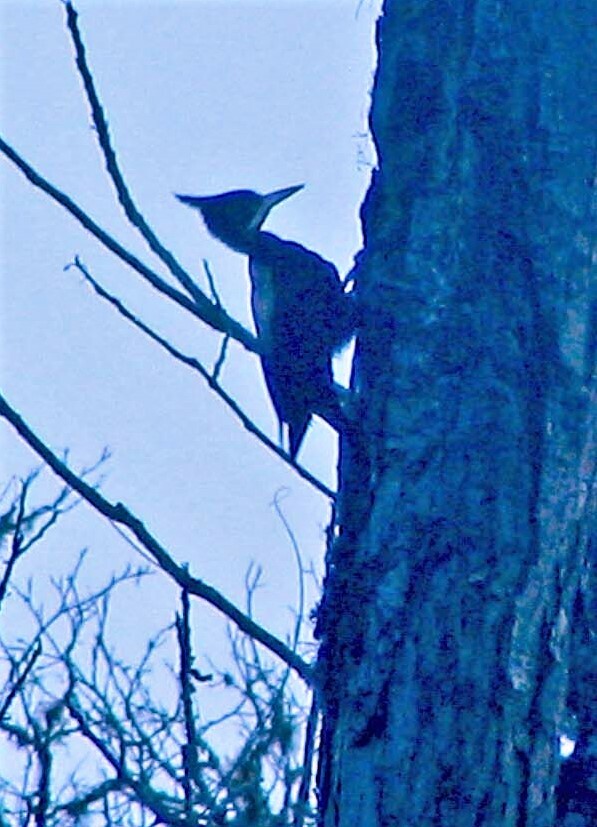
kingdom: Animalia
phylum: Chordata
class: Aves
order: Piciformes
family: Picidae
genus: Campephilus
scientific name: Campephilus leucopogon
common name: Cream-backed woodpecker
